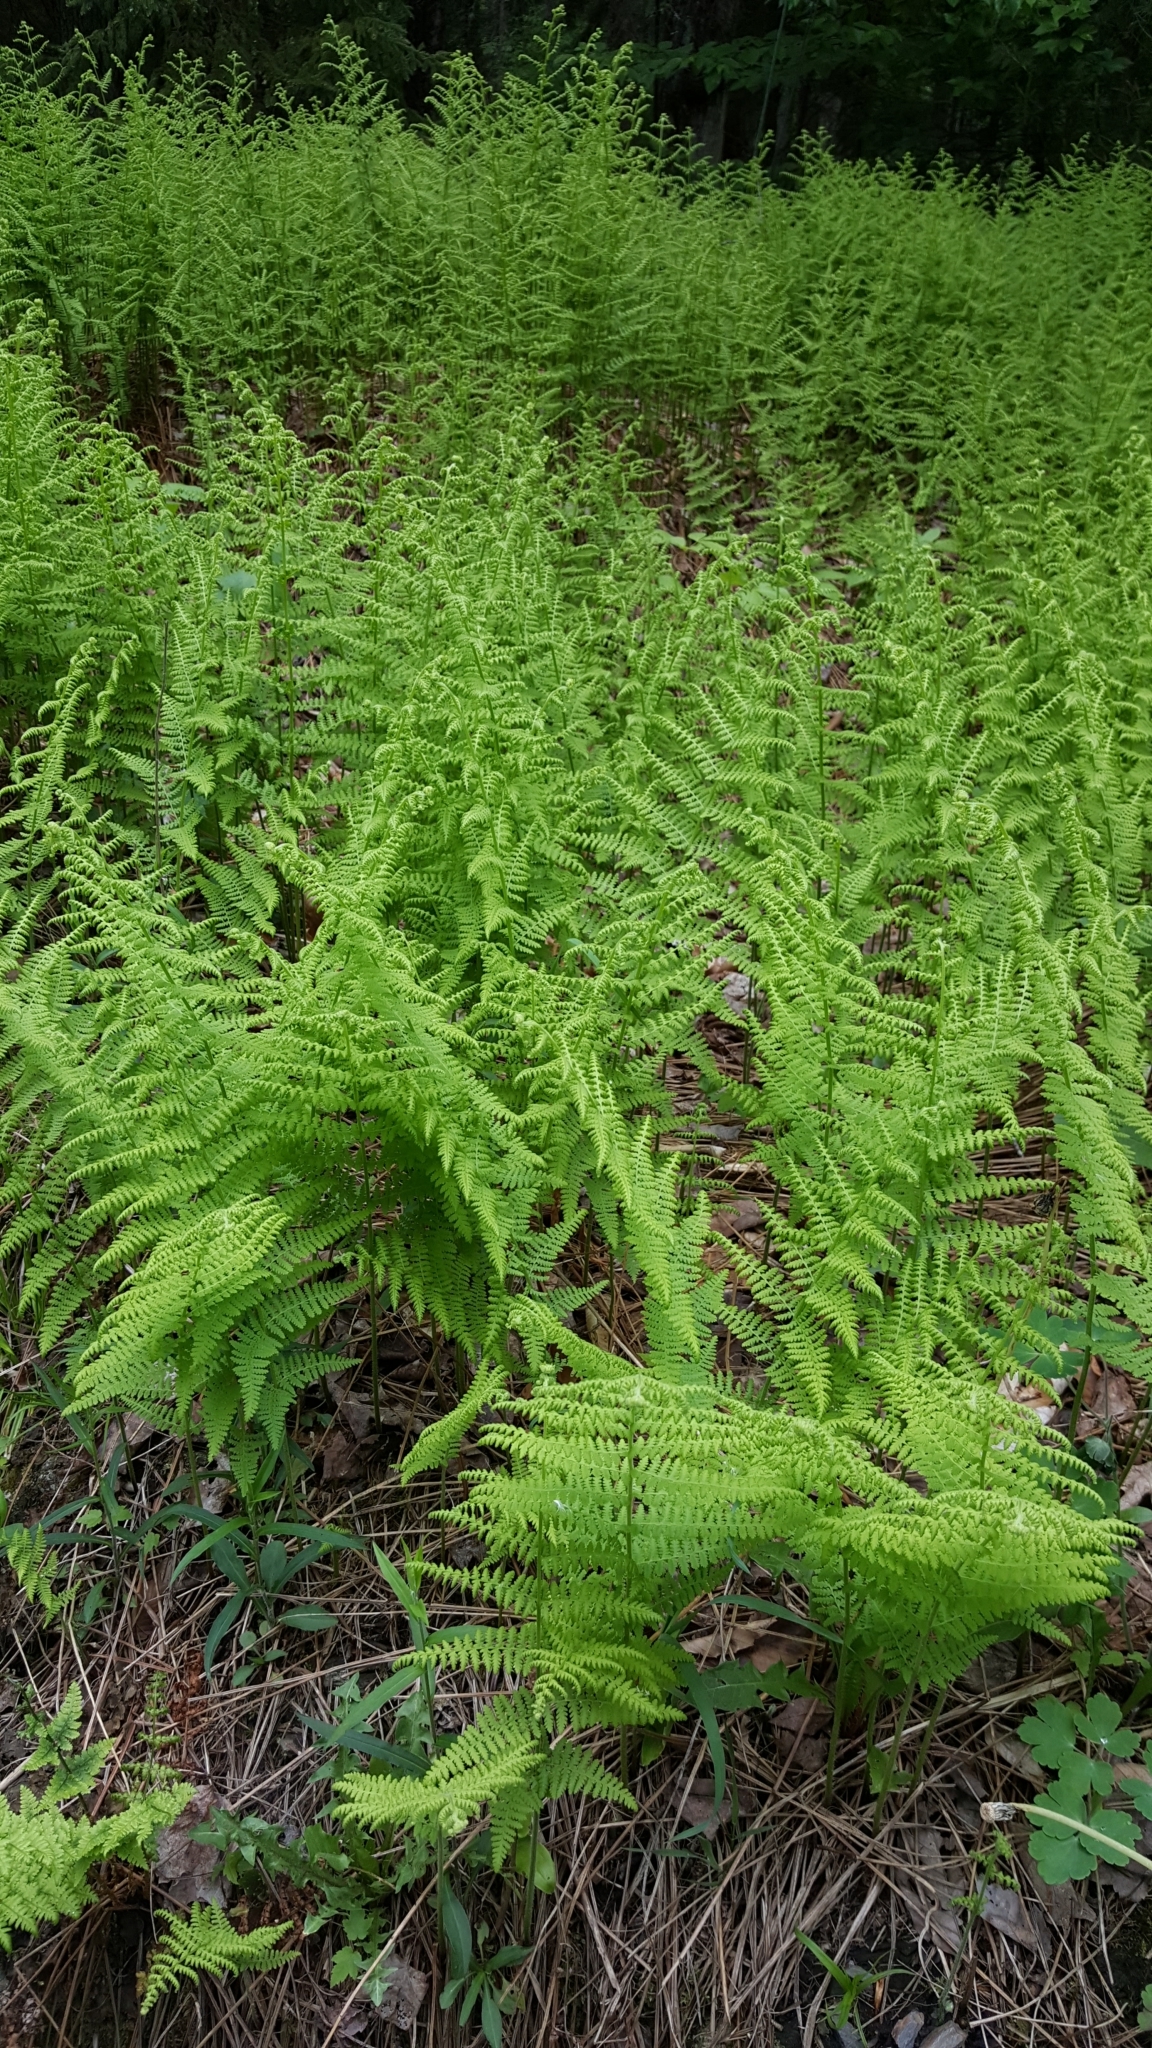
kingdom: Plantae
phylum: Tracheophyta
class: Polypodiopsida
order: Polypodiales
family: Dennstaedtiaceae
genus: Sitobolium
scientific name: Sitobolium punctilobum
